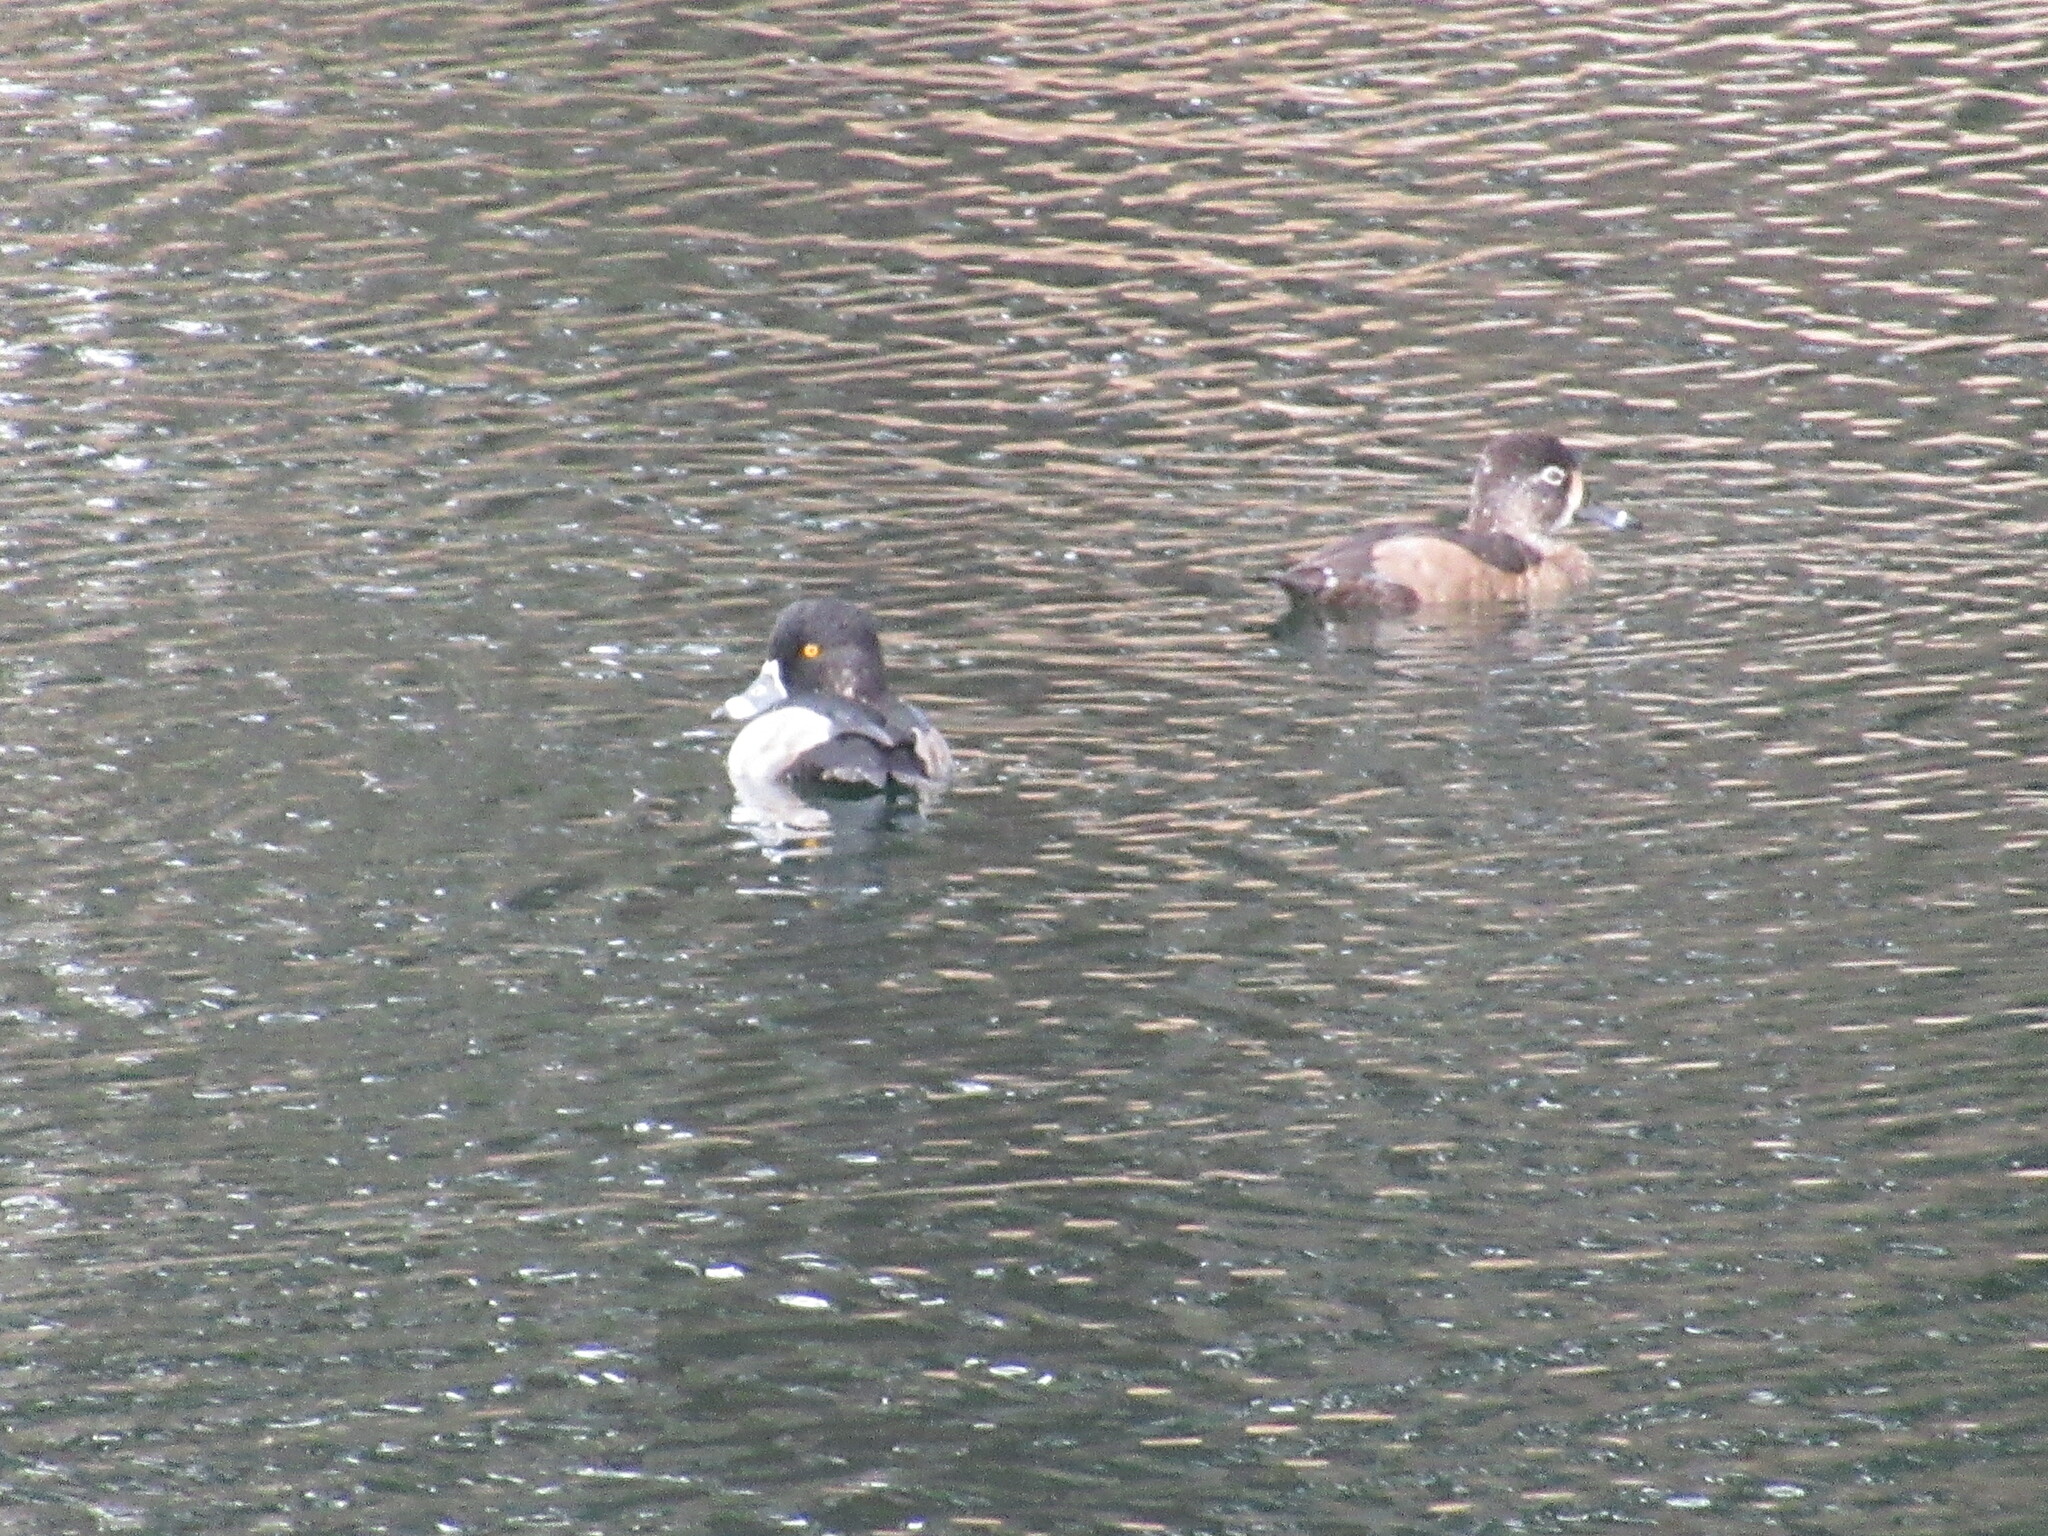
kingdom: Animalia
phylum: Chordata
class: Aves
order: Anseriformes
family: Anatidae
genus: Aythya
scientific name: Aythya collaris
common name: Ring-necked duck
